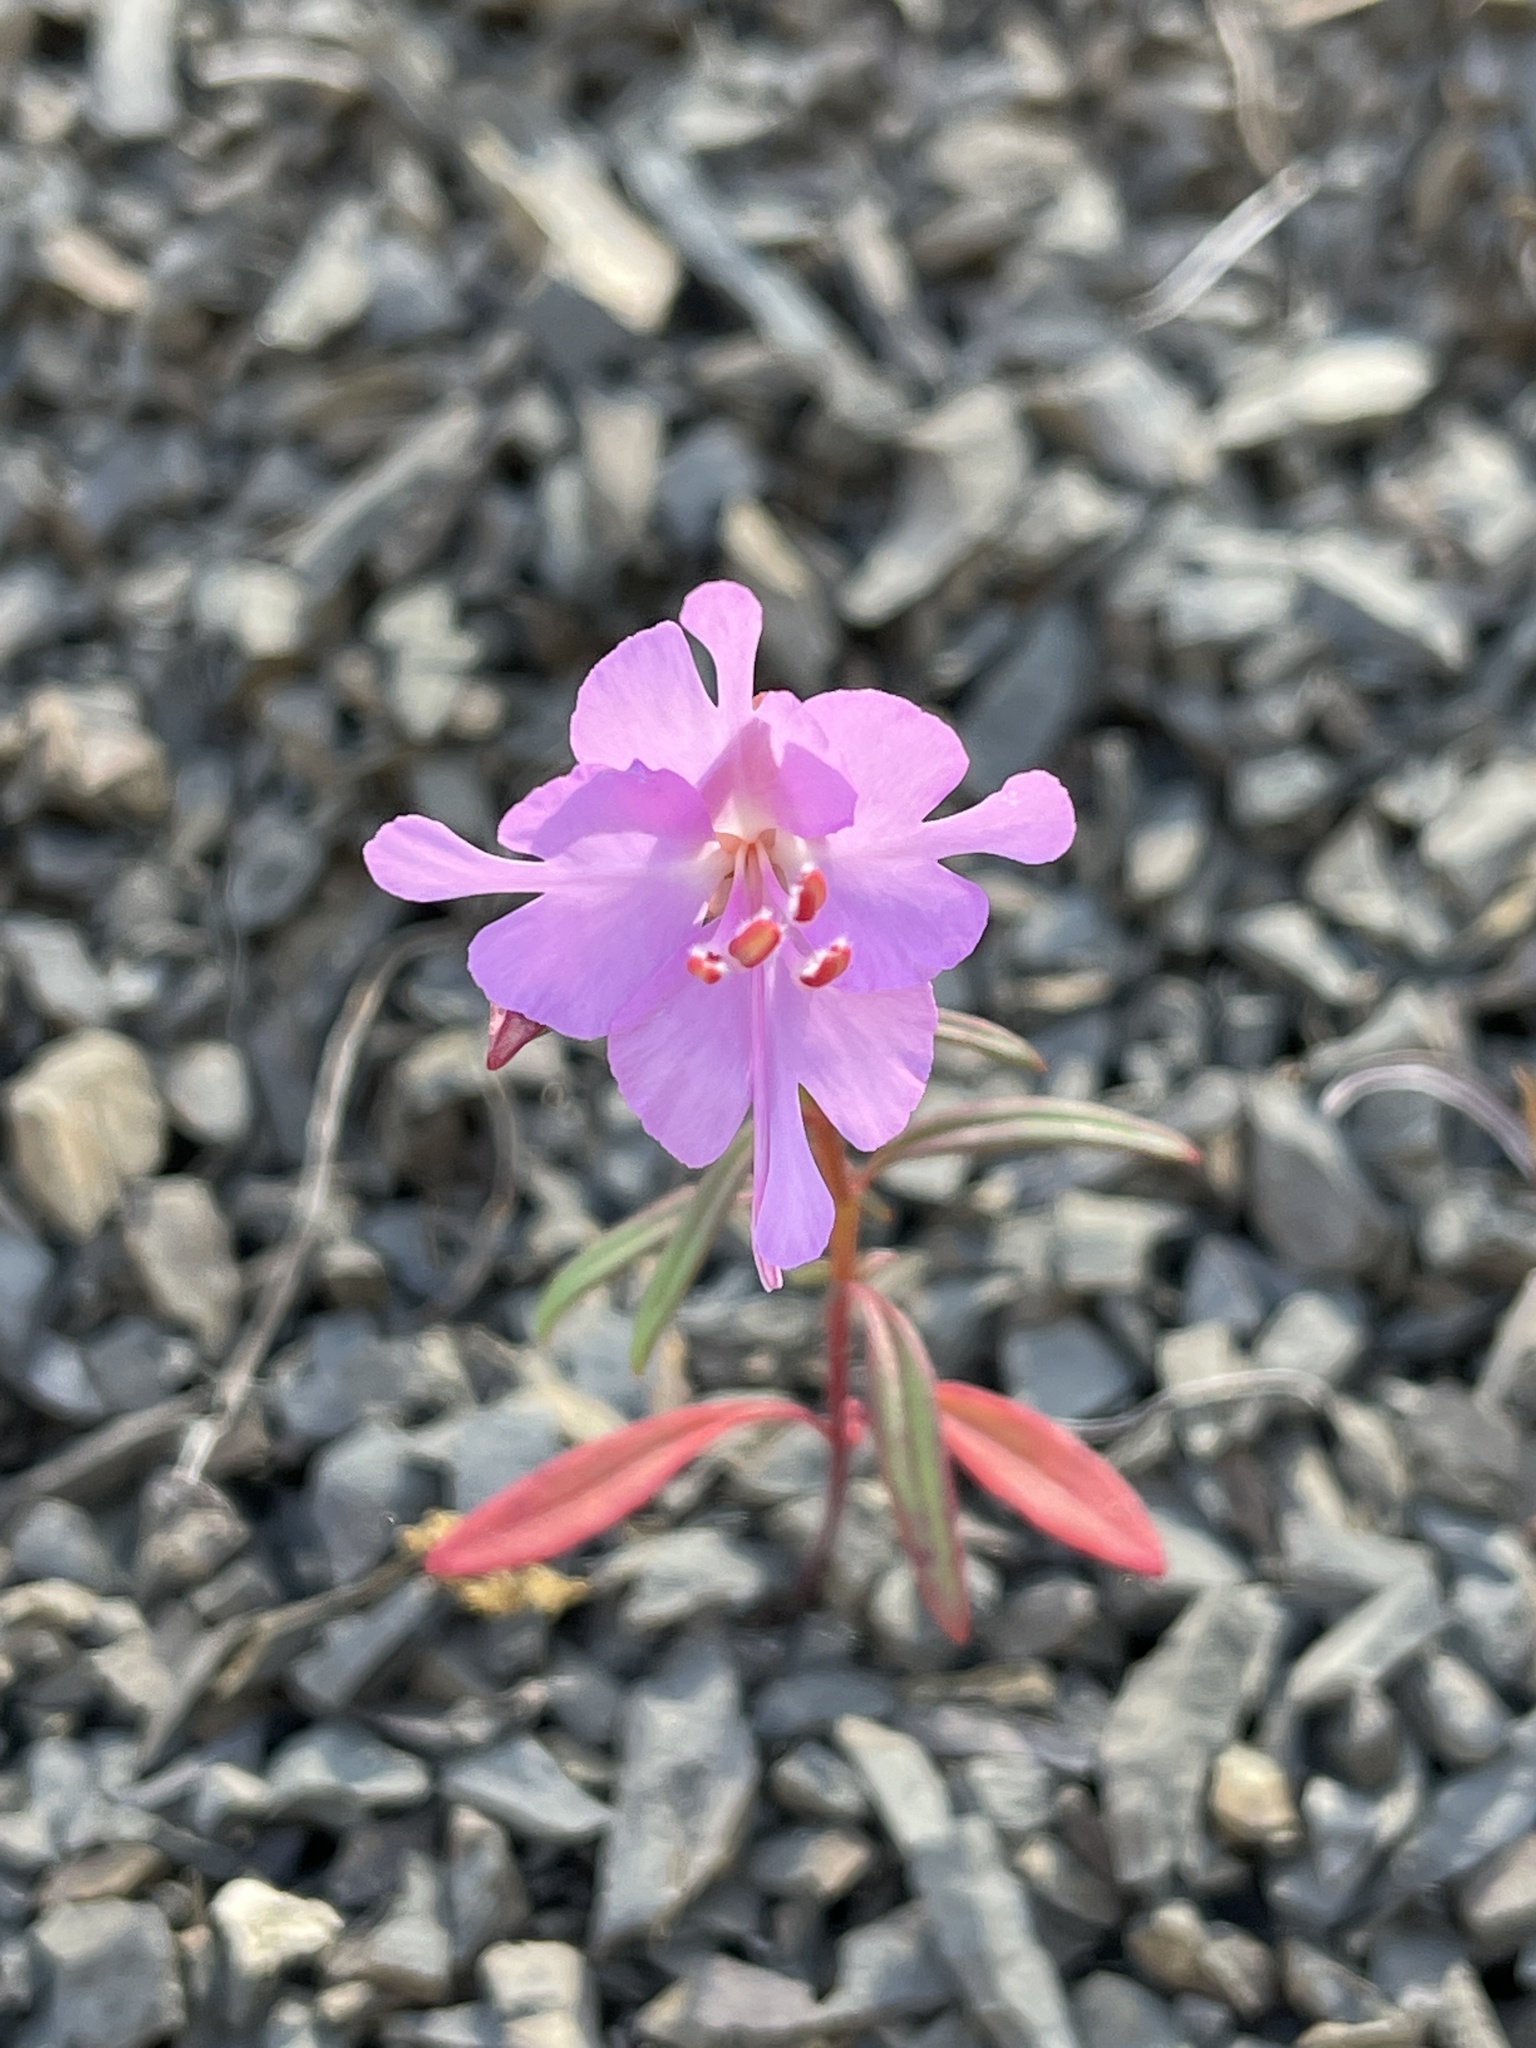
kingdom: Plantae
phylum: Tracheophyta
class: Magnoliopsida
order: Myrtales
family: Onagraceae
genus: Clarkia
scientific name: Clarkia breweri
